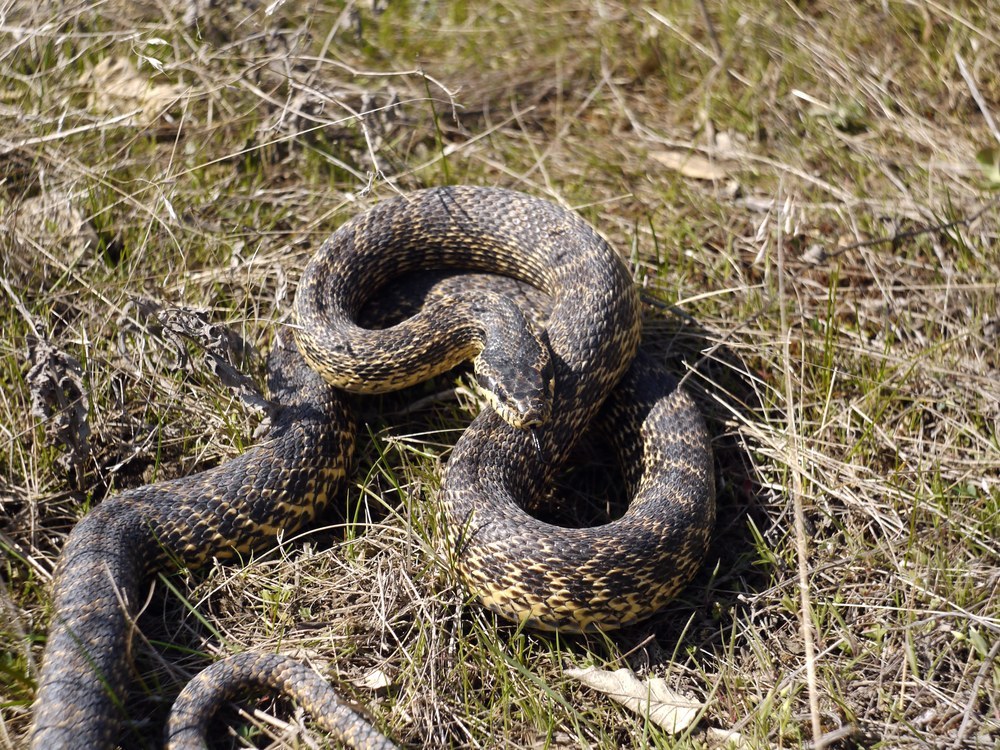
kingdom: Animalia
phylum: Chordata
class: Squamata
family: Colubridae
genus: Elaphe
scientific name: Elaphe sauromates
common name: Eastern four-lined ratsnake
